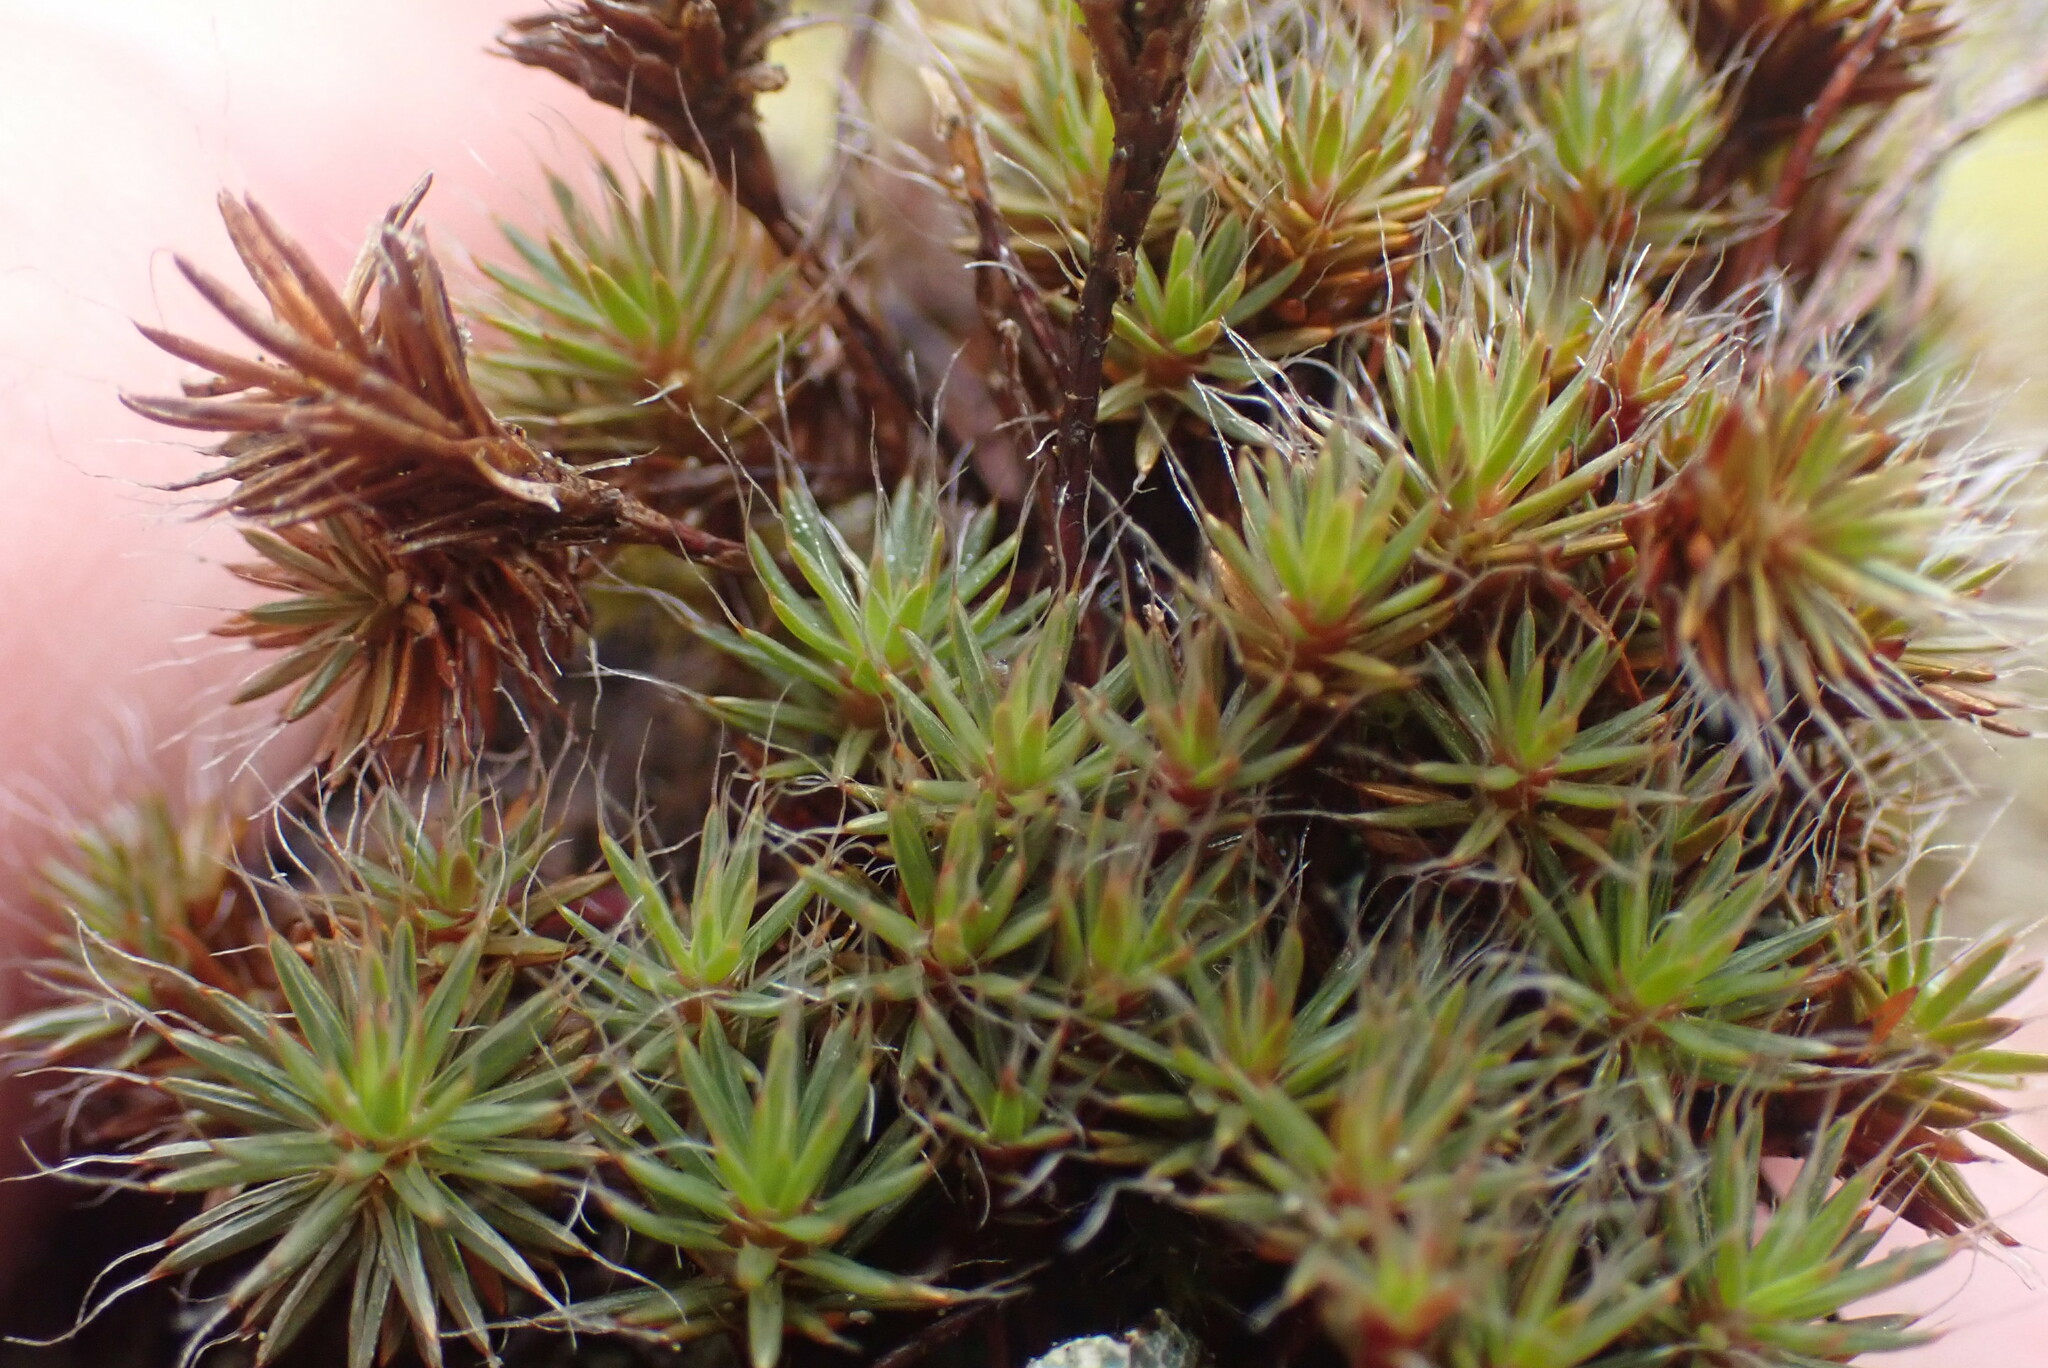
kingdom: Plantae
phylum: Bryophyta
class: Polytrichopsida
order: Polytrichales
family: Polytrichaceae
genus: Polytrichum
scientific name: Polytrichum piliferum
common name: Bristly haircap
